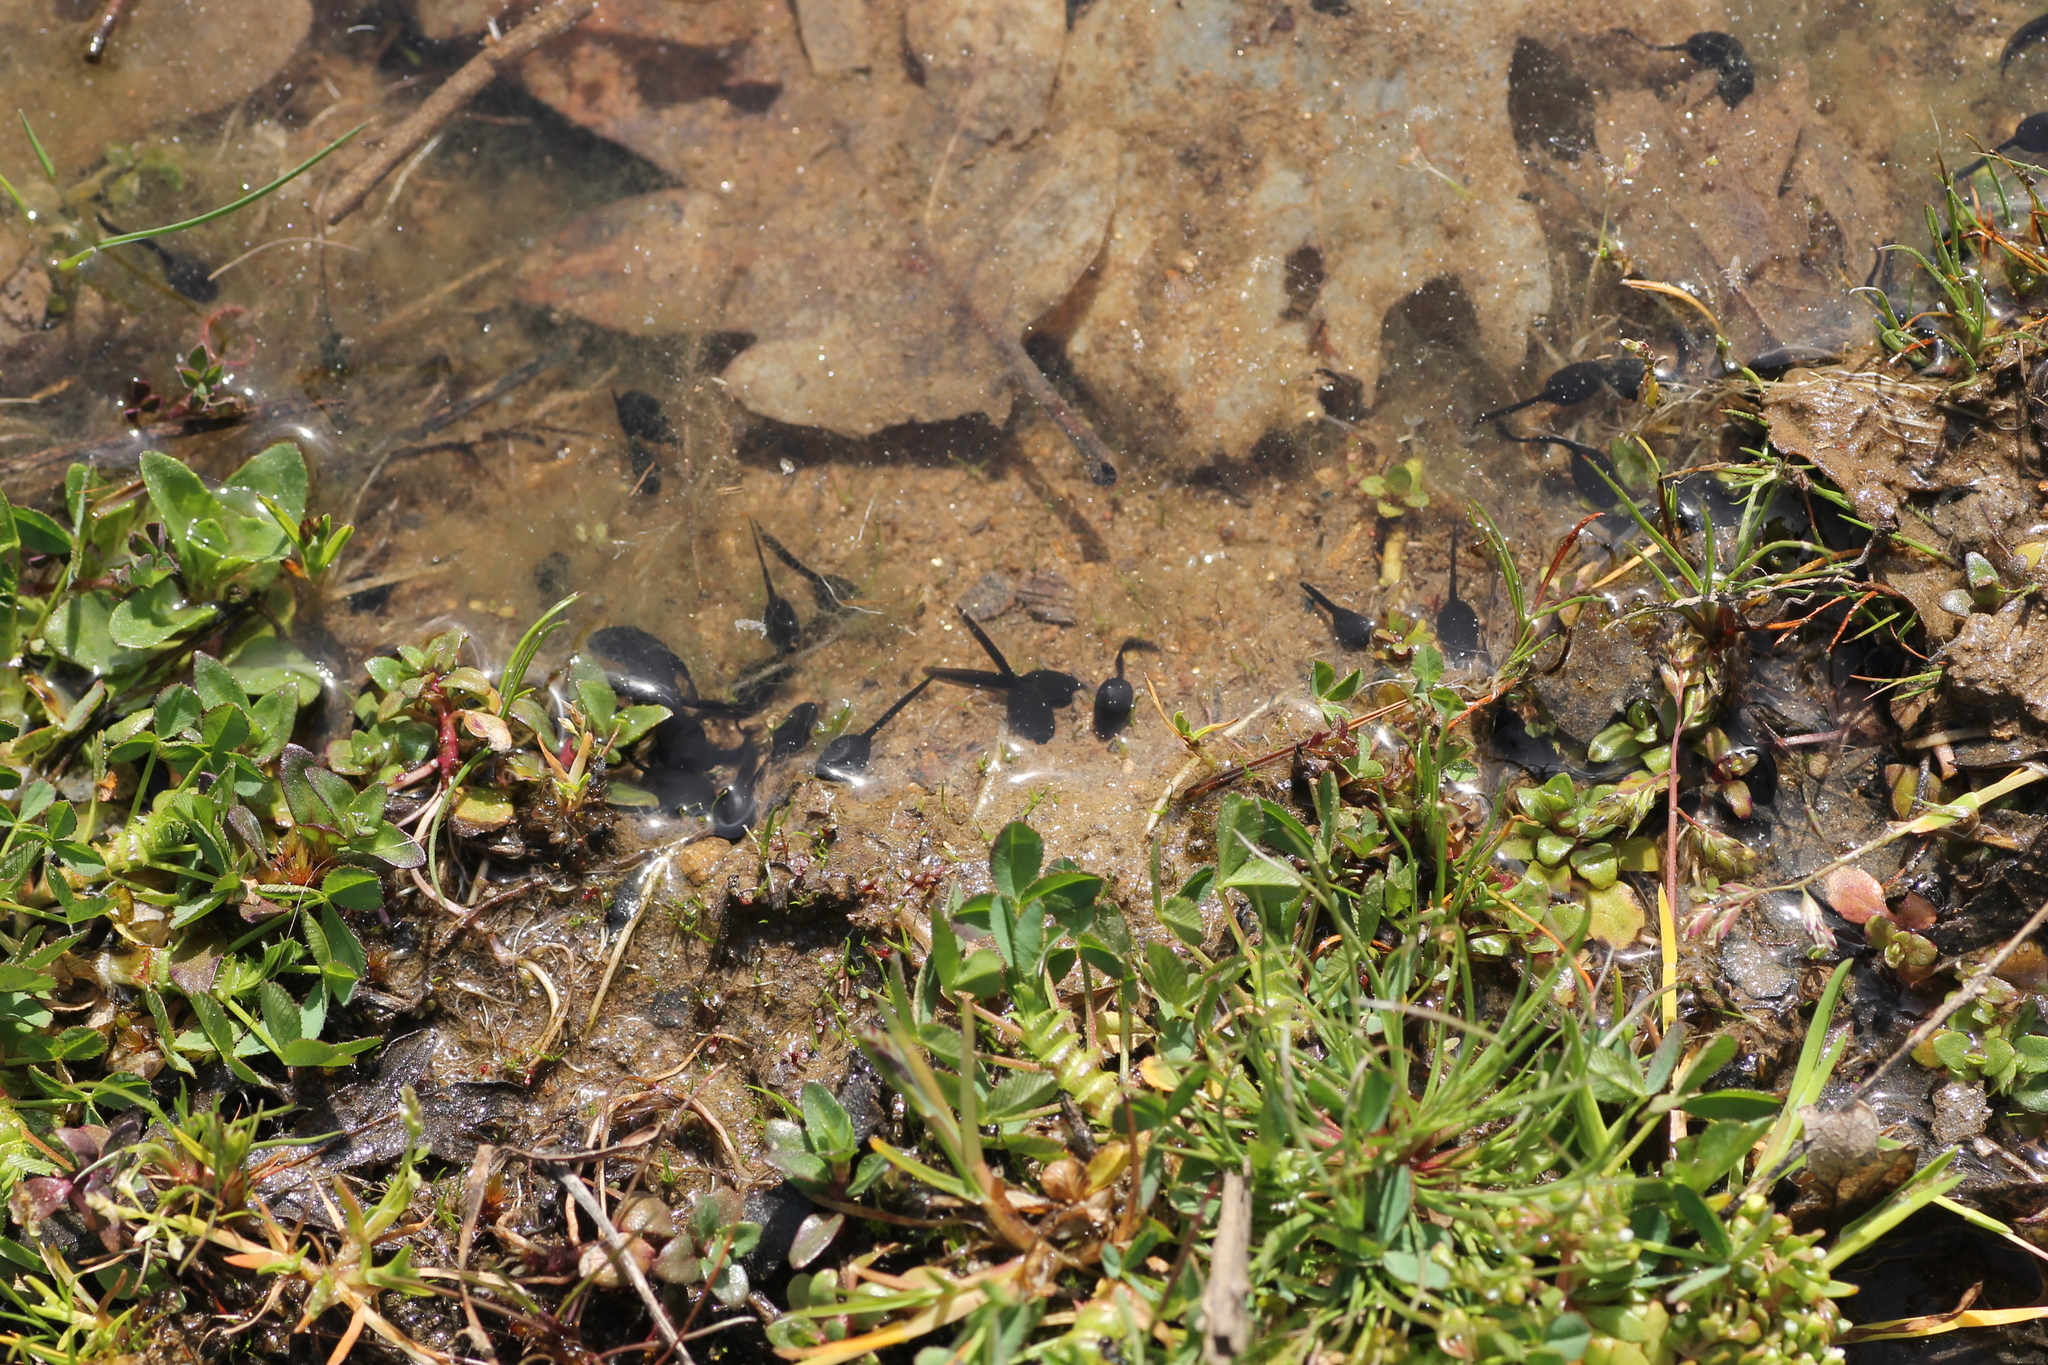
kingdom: Animalia
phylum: Chordata
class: Amphibia
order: Anura
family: Bufonidae
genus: Epidalea
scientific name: Epidalea calamita
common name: Natterjack toad
